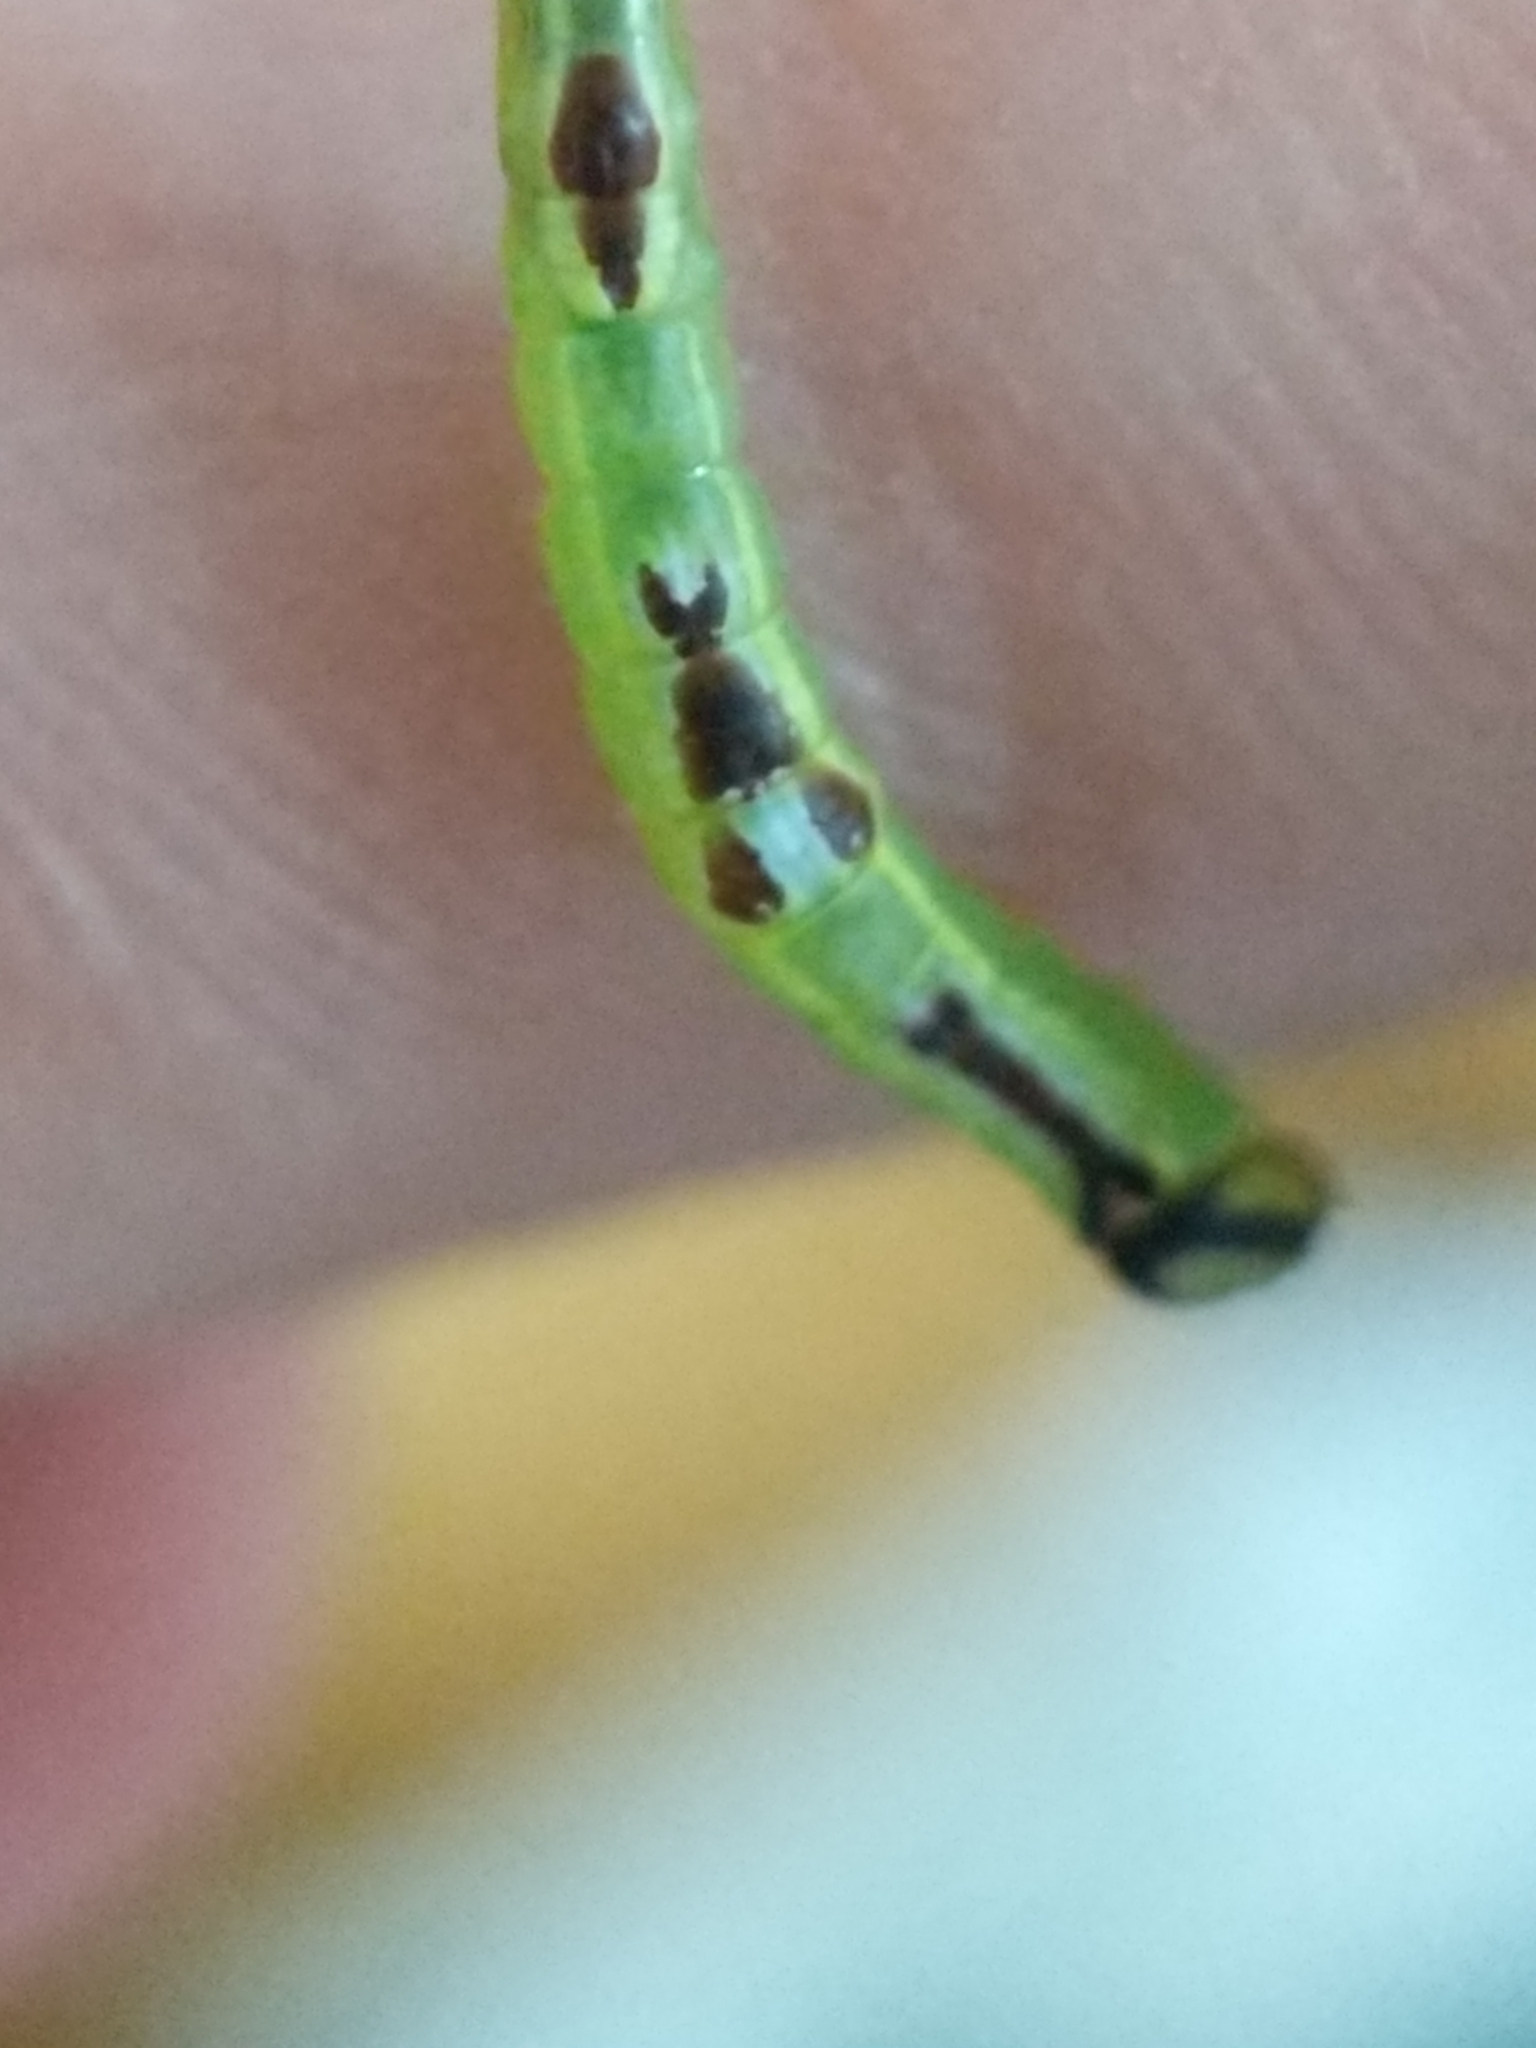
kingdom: Animalia
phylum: Arthropoda
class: Insecta
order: Lepidoptera
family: Notodontidae
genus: Disphragis
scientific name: Disphragis Cecrita guttivitta
